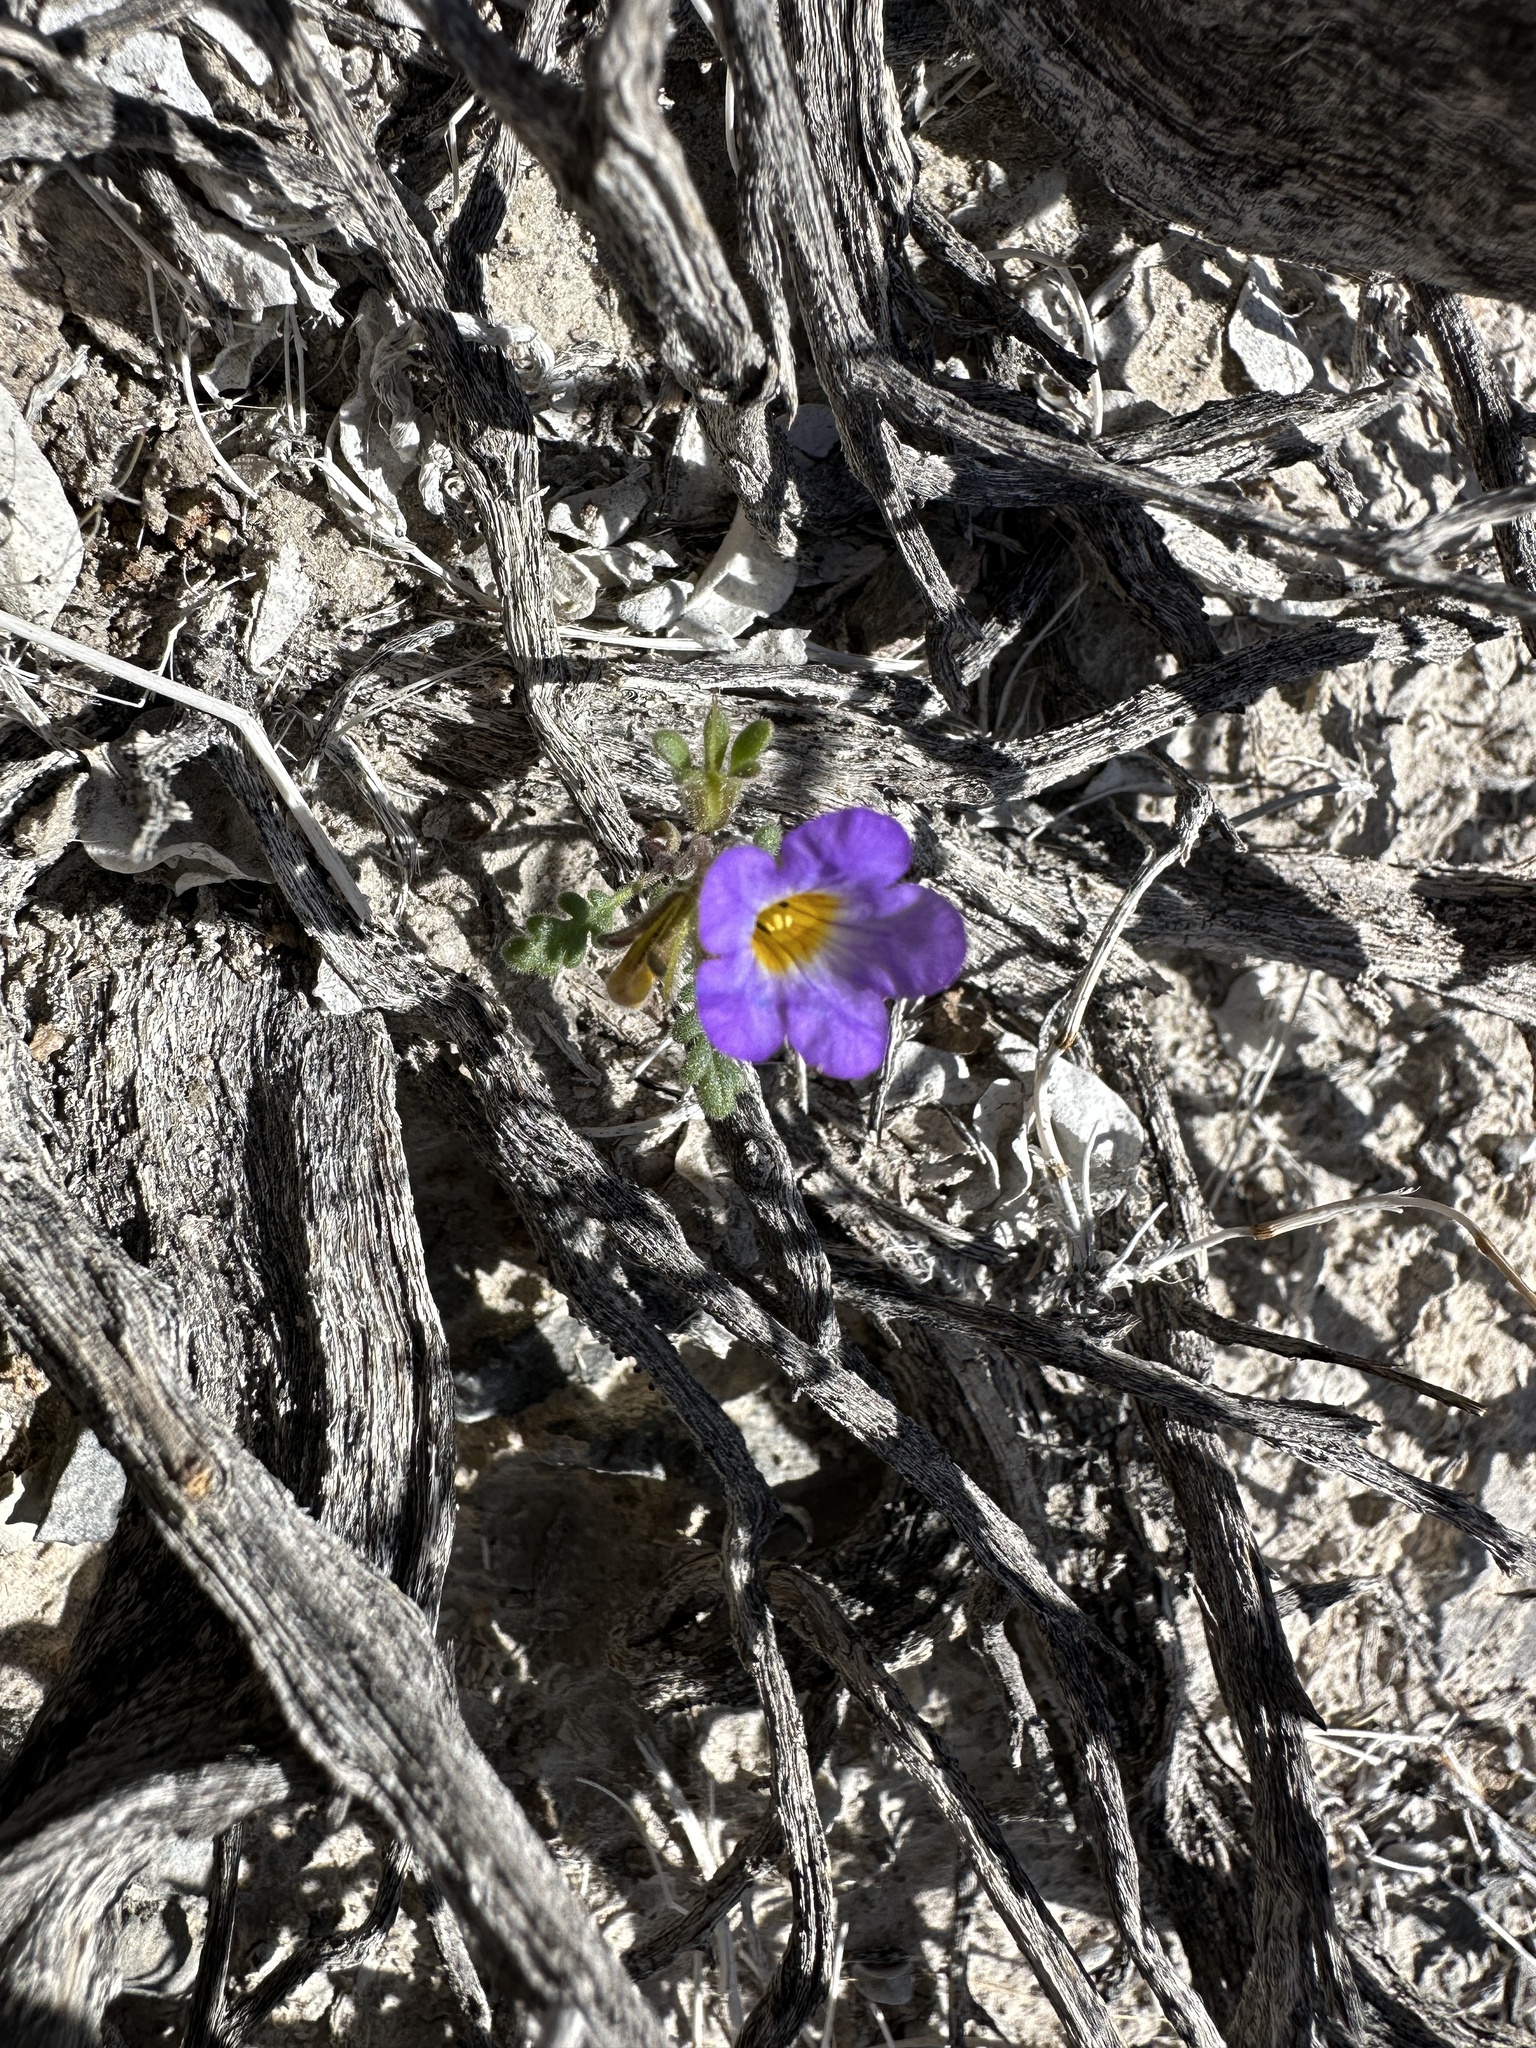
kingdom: Plantae
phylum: Tracheophyta
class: Magnoliopsida
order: Boraginales
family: Hydrophyllaceae
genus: Phacelia
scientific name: Phacelia fremontii
